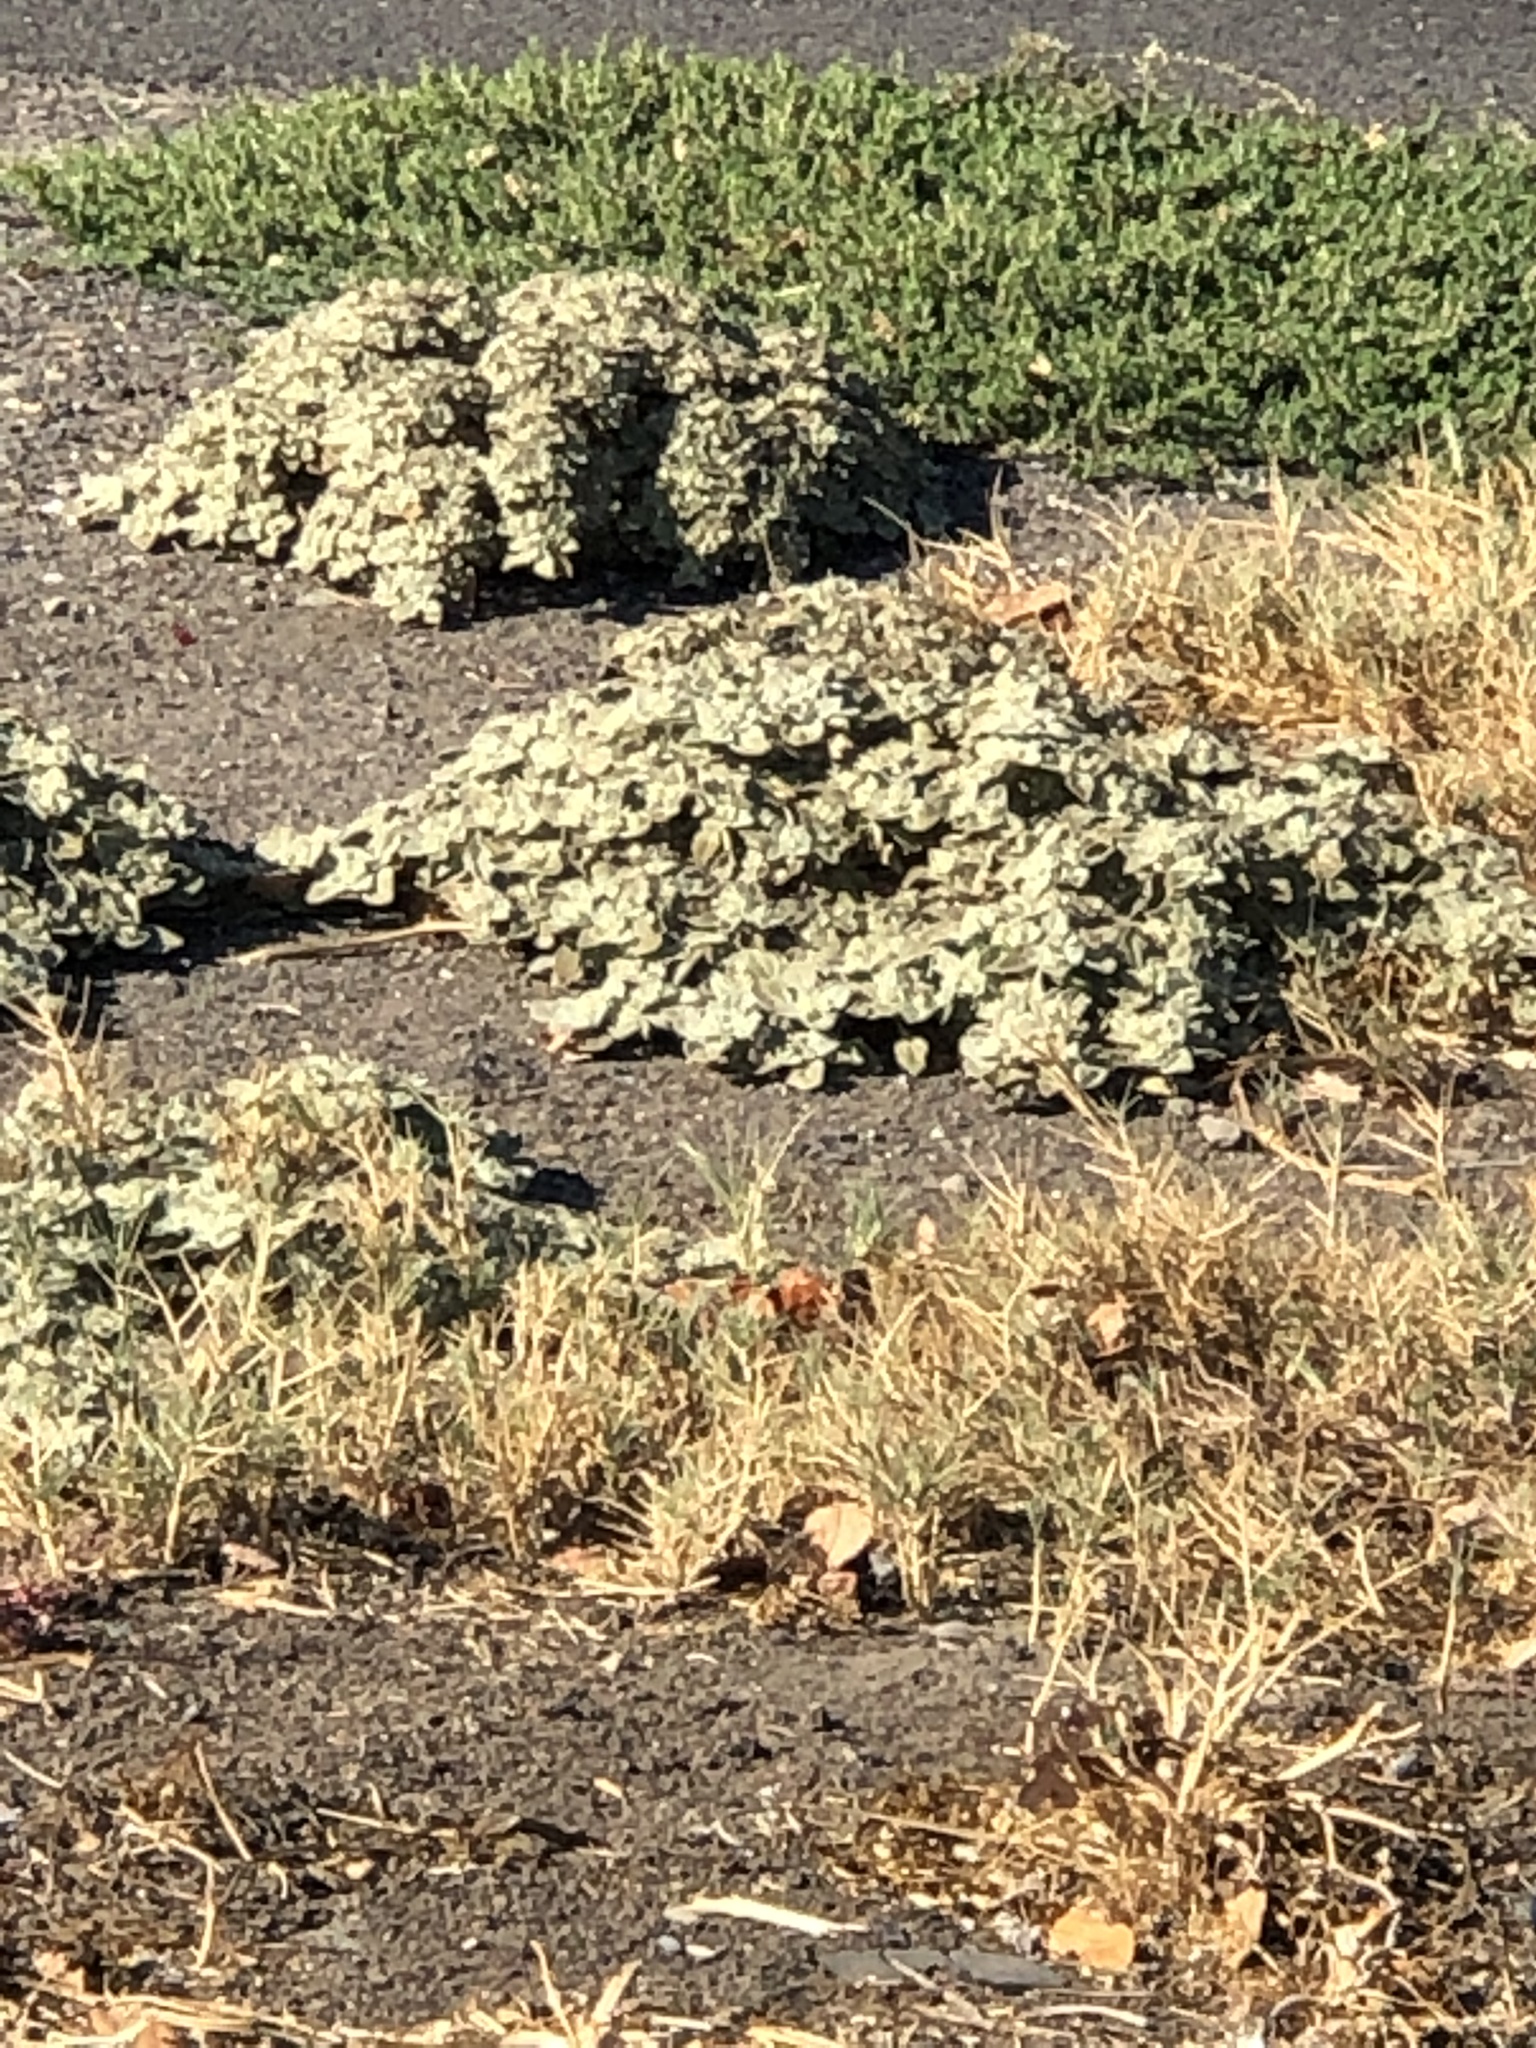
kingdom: Plantae
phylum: Tracheophyta
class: Magnoliopsida
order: Malpighiales
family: Euphorbiaceae
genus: Croton
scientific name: Croton setiger
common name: Dove weed
